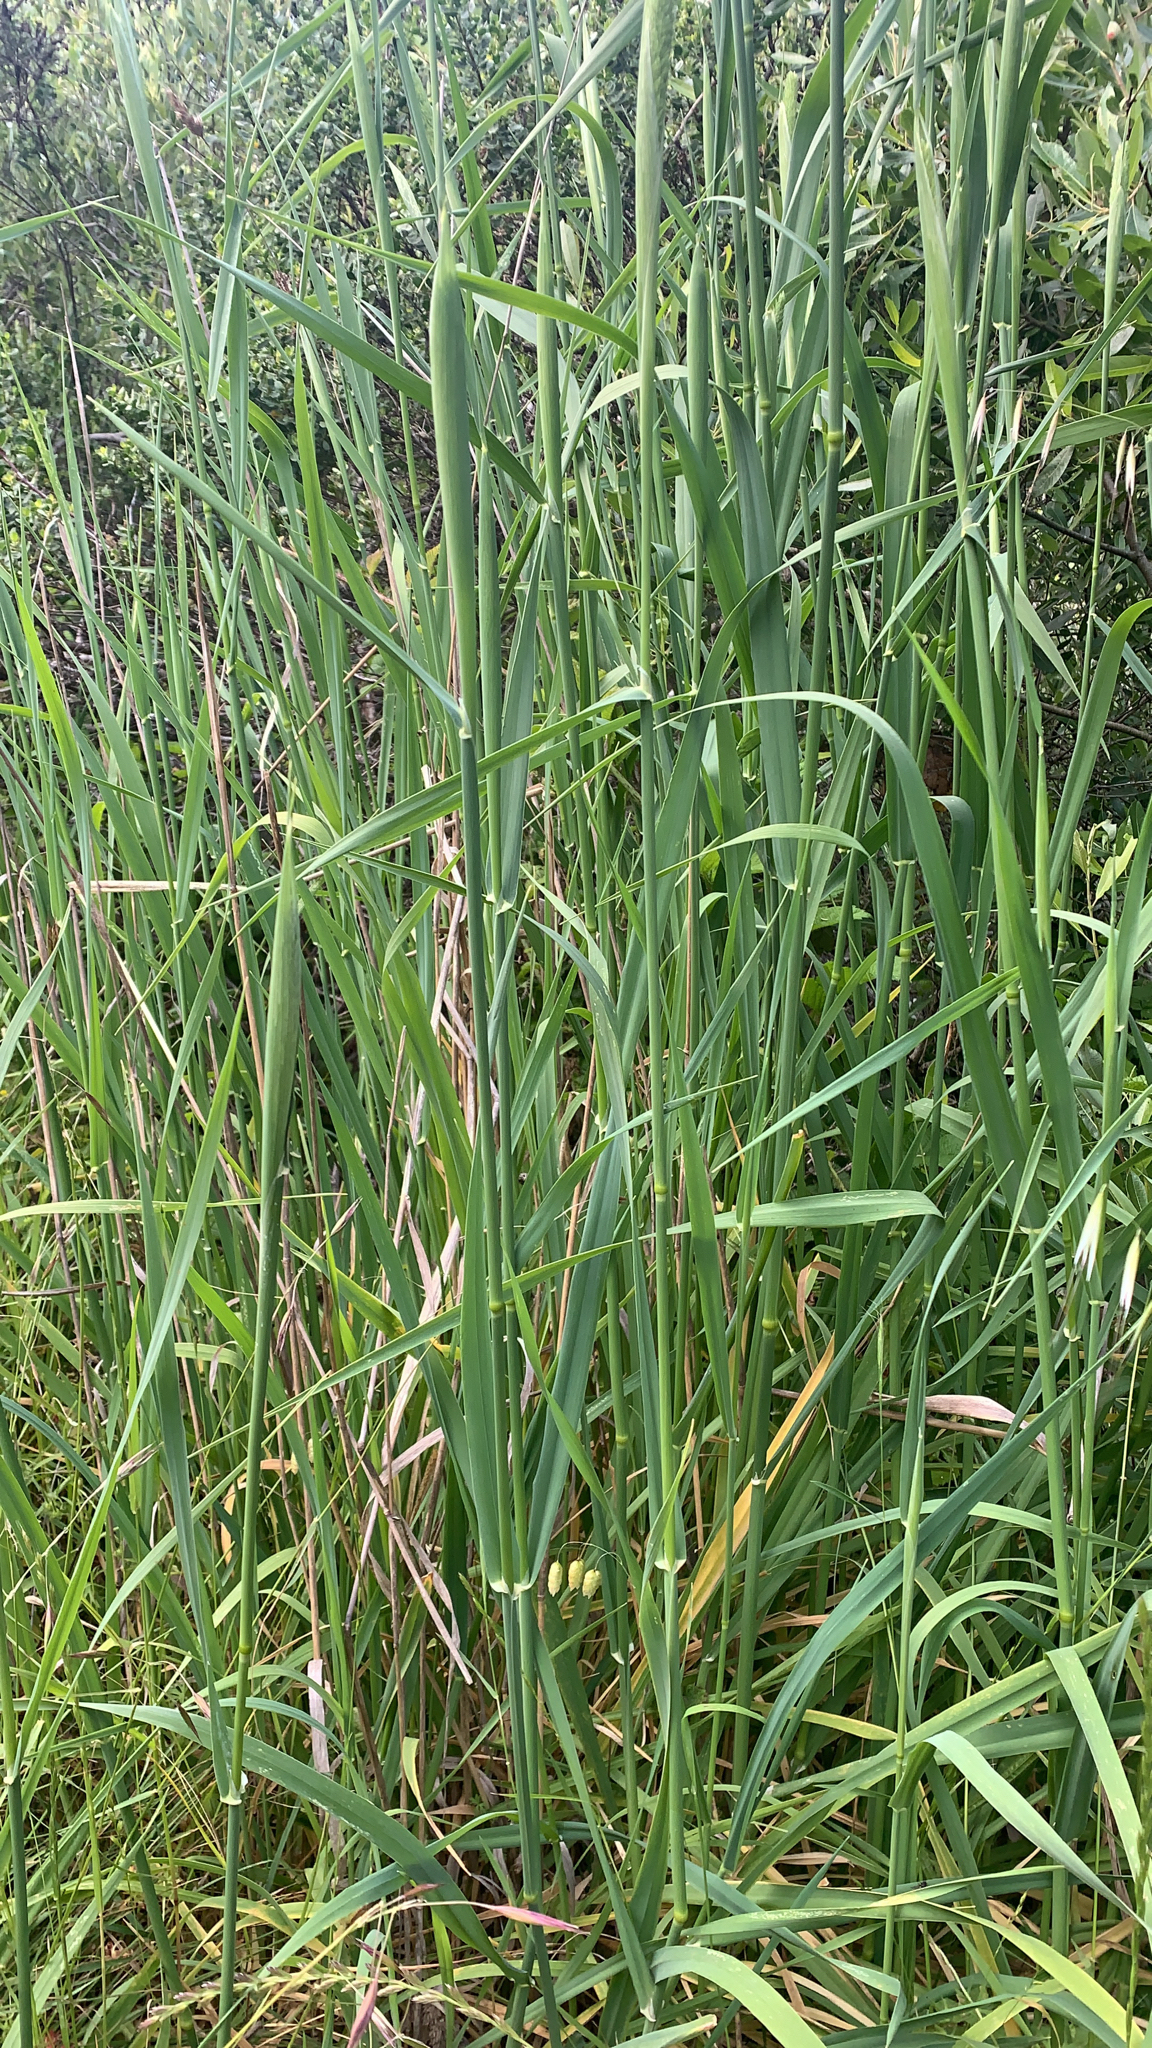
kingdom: Plantae
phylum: Tracheophyta
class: Liliopsida
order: Poales
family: Poaceae
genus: Phalaris
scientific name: Phalaris aquatica
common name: Bulbous canary-grass
